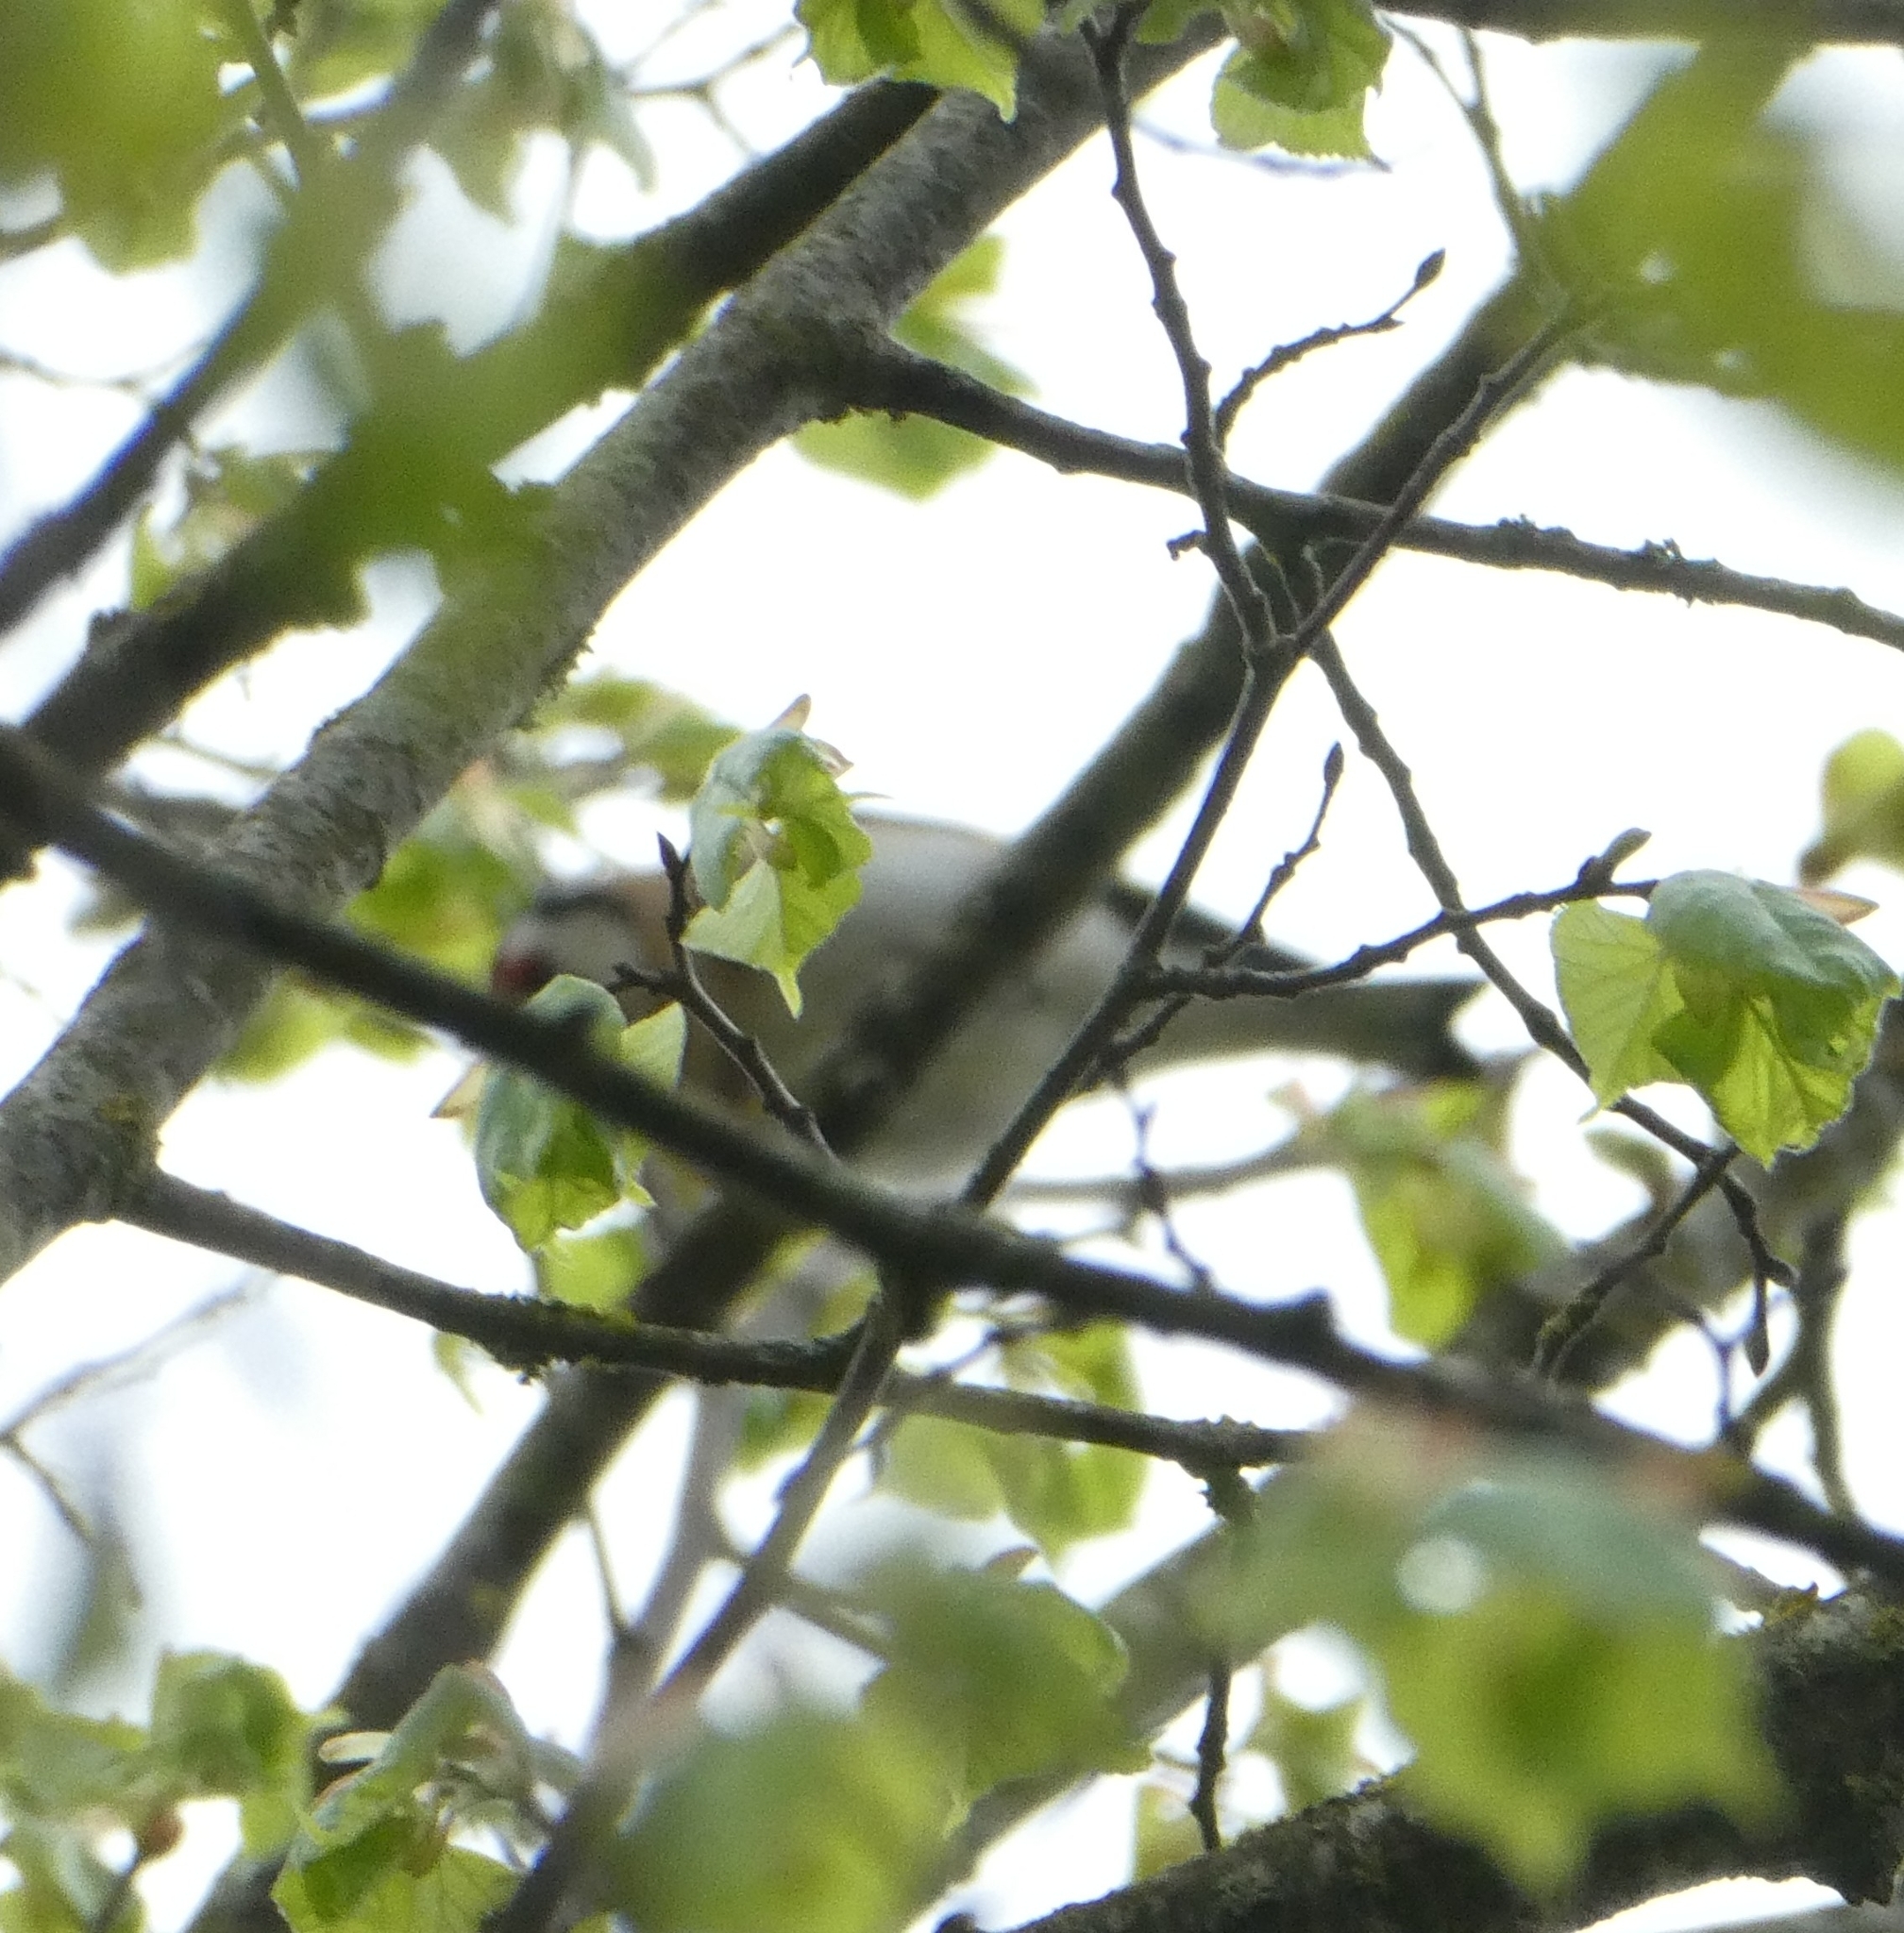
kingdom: Animalia
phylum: Chordata
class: Aves
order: Passeriformes
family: Fringillidae
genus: Carduelis
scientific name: Carduelis carduelis
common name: European goldfinch
